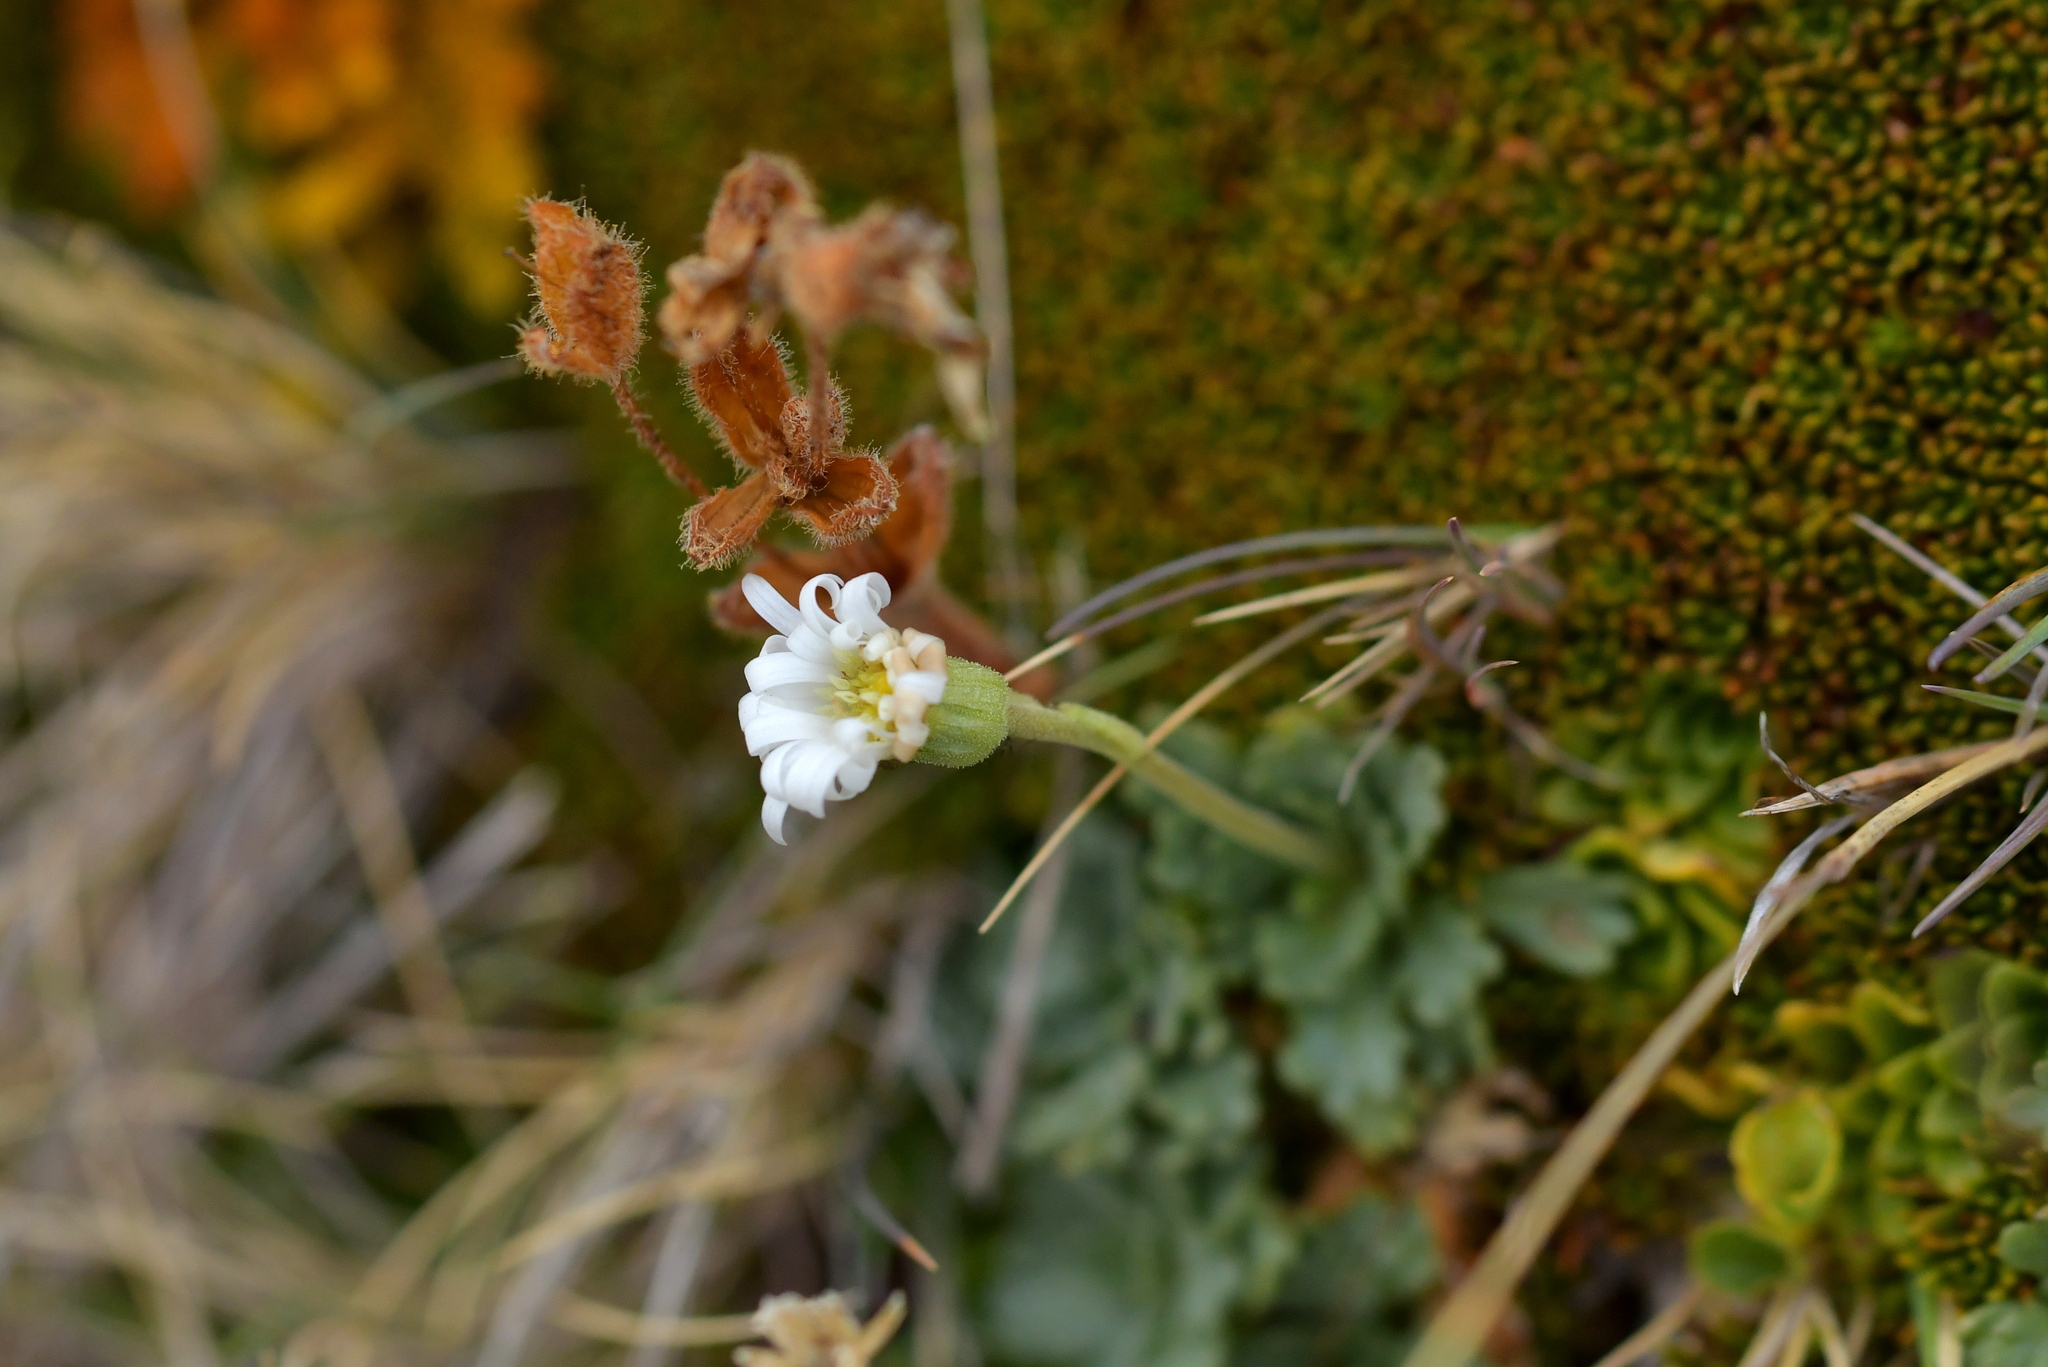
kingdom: Plantae
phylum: Tracheophyta
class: Magnoliopsida
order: Asterales
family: Asteraceae
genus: Brachyscome
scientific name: Brachyscome montana
